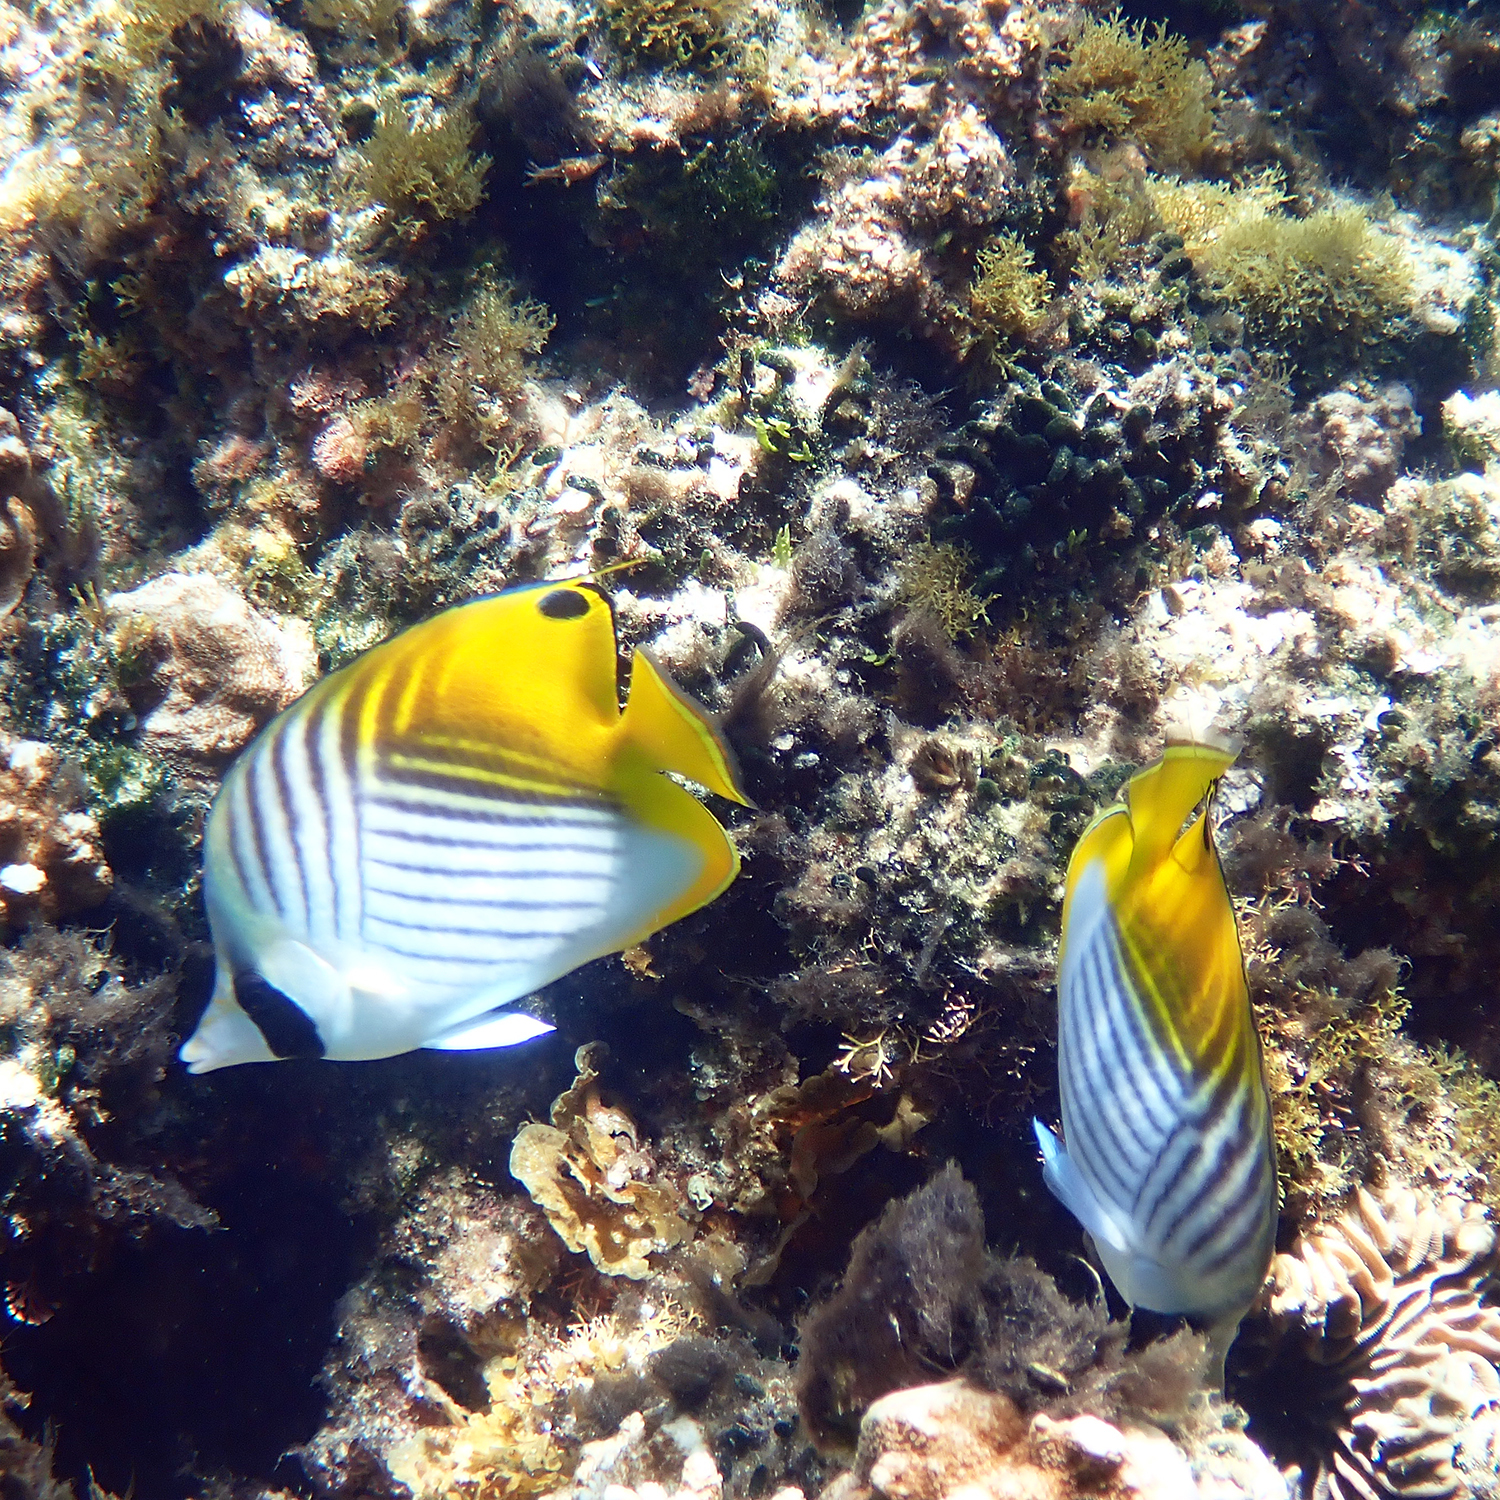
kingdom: Animalia
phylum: Chordata
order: Perciformes
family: Chaetodontidae
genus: Chaetodon
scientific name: Chaetodon auriga
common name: Threadfin butterflyfish
